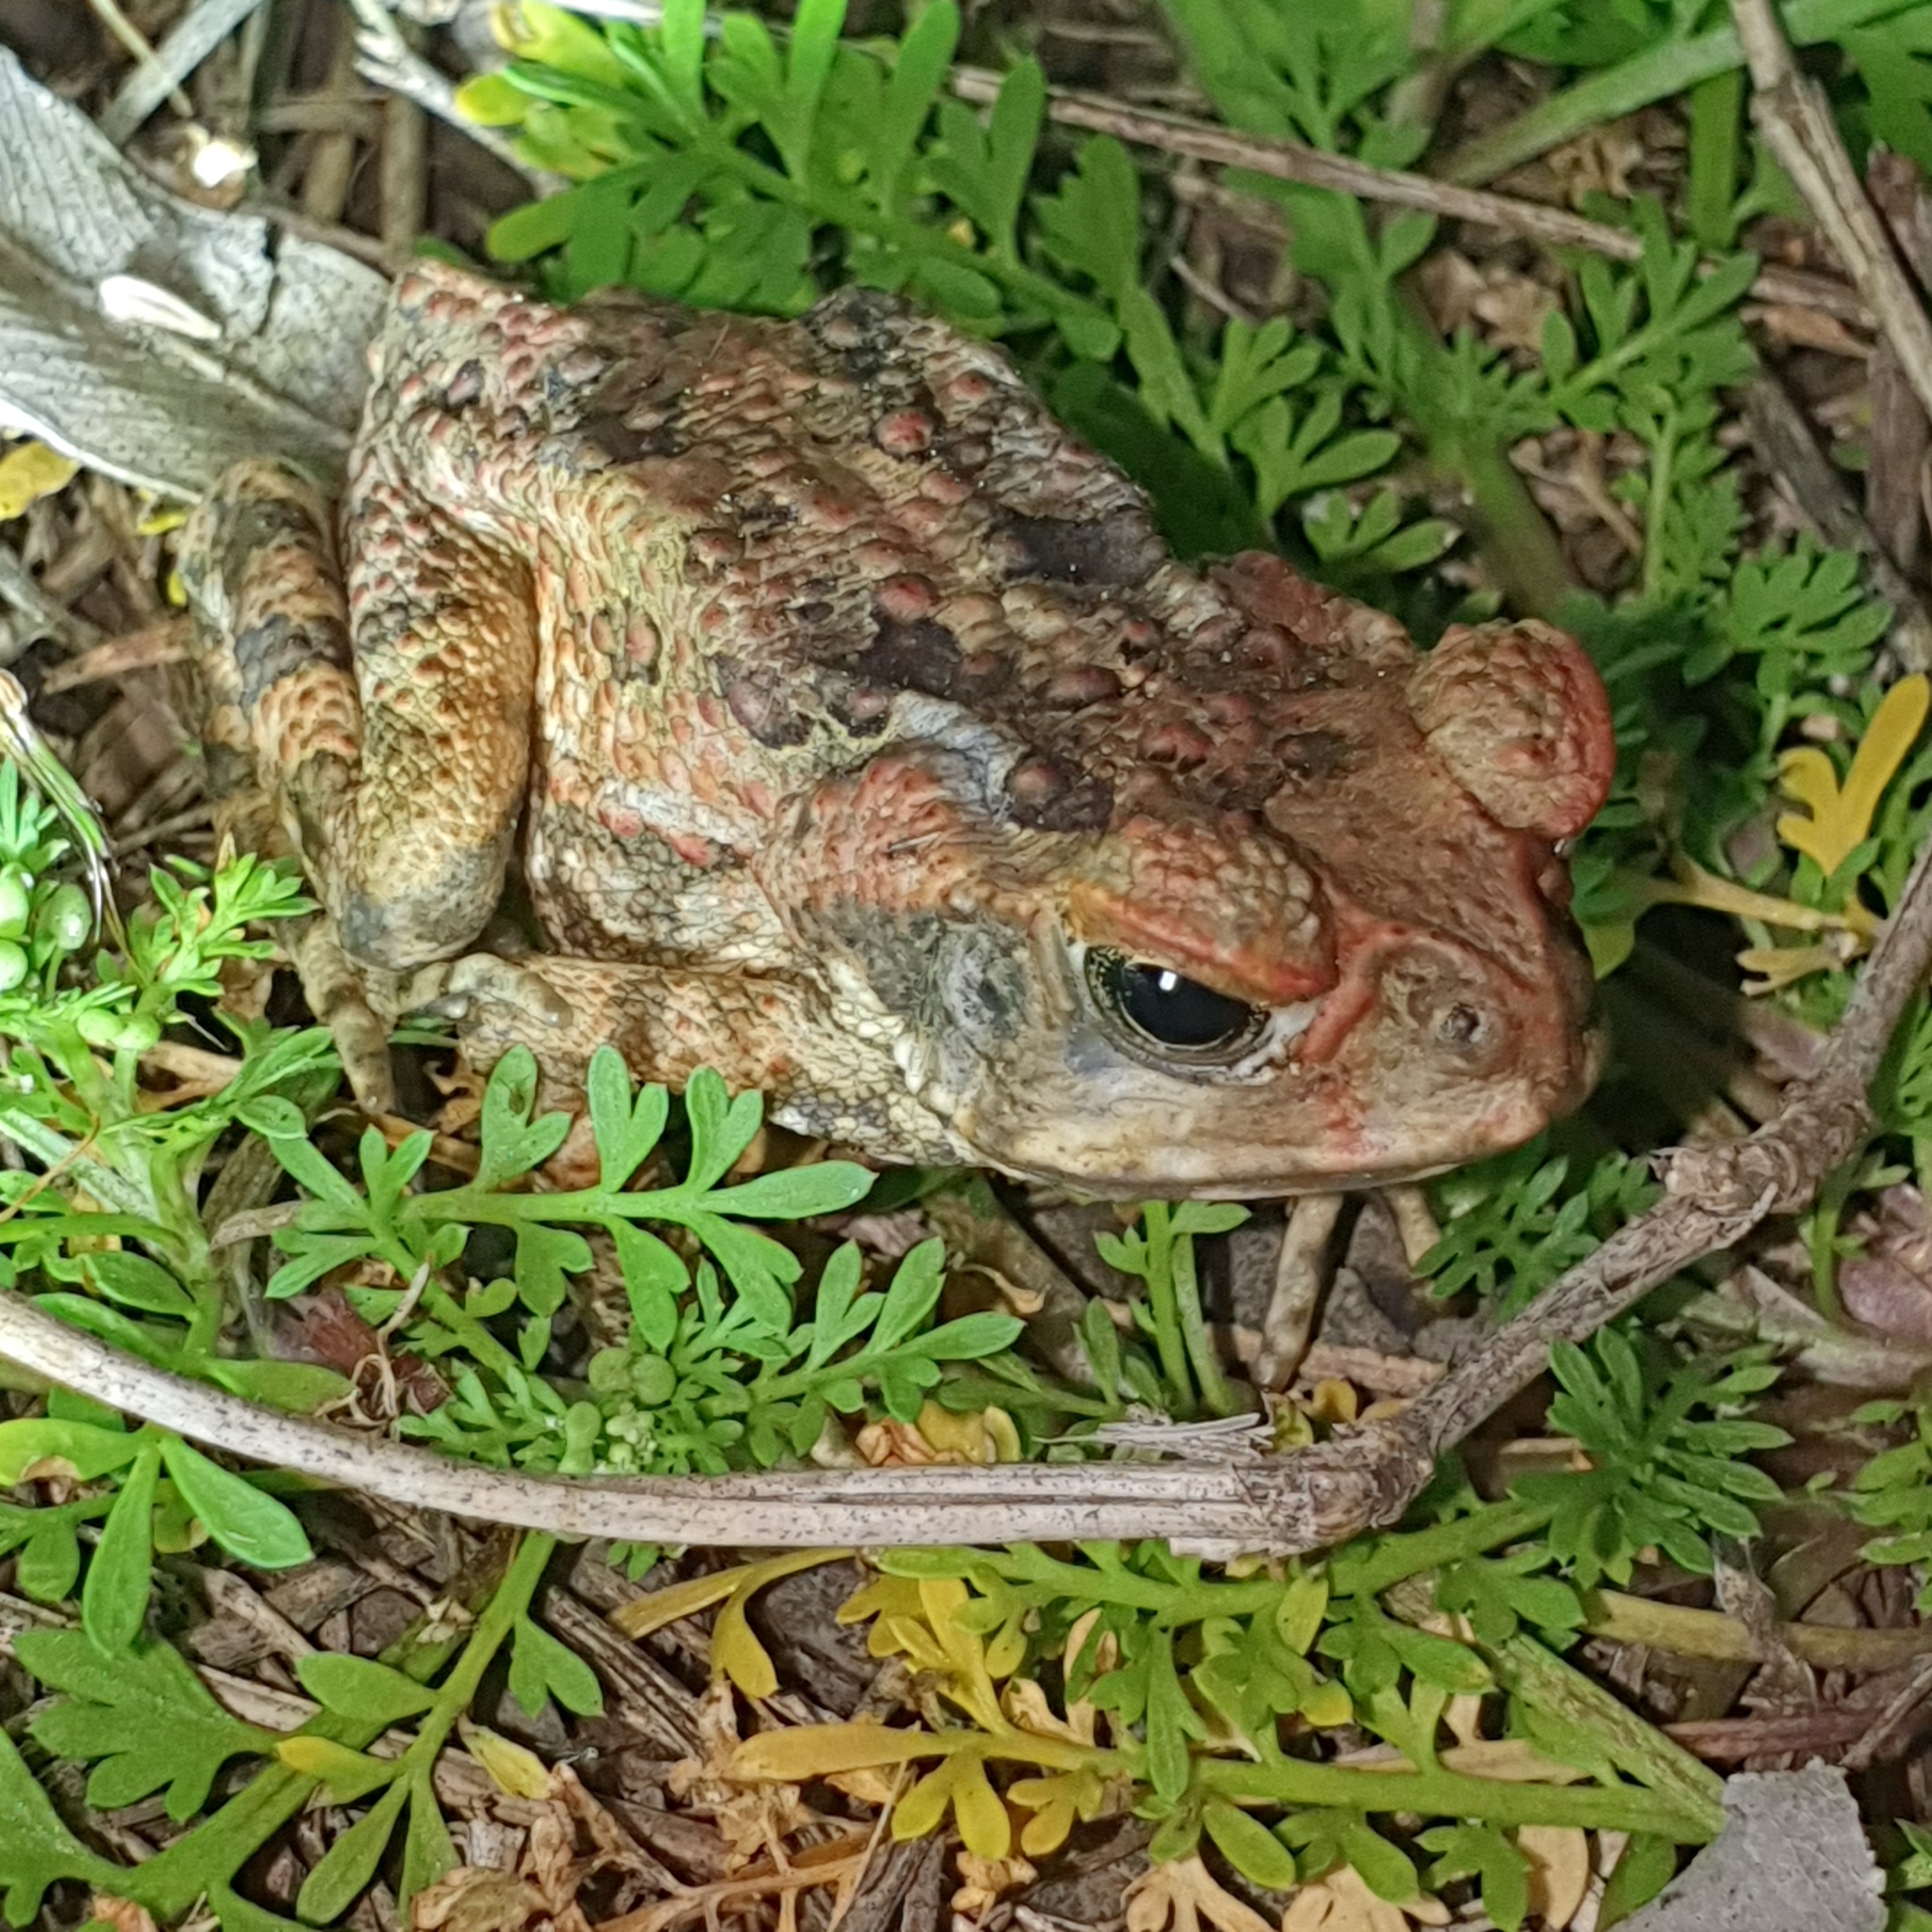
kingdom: Animalia
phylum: Chordata
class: Amphibia
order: Anura
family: Bufonidae
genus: Rhinella
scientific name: Rhinella marina
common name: Cane toad
